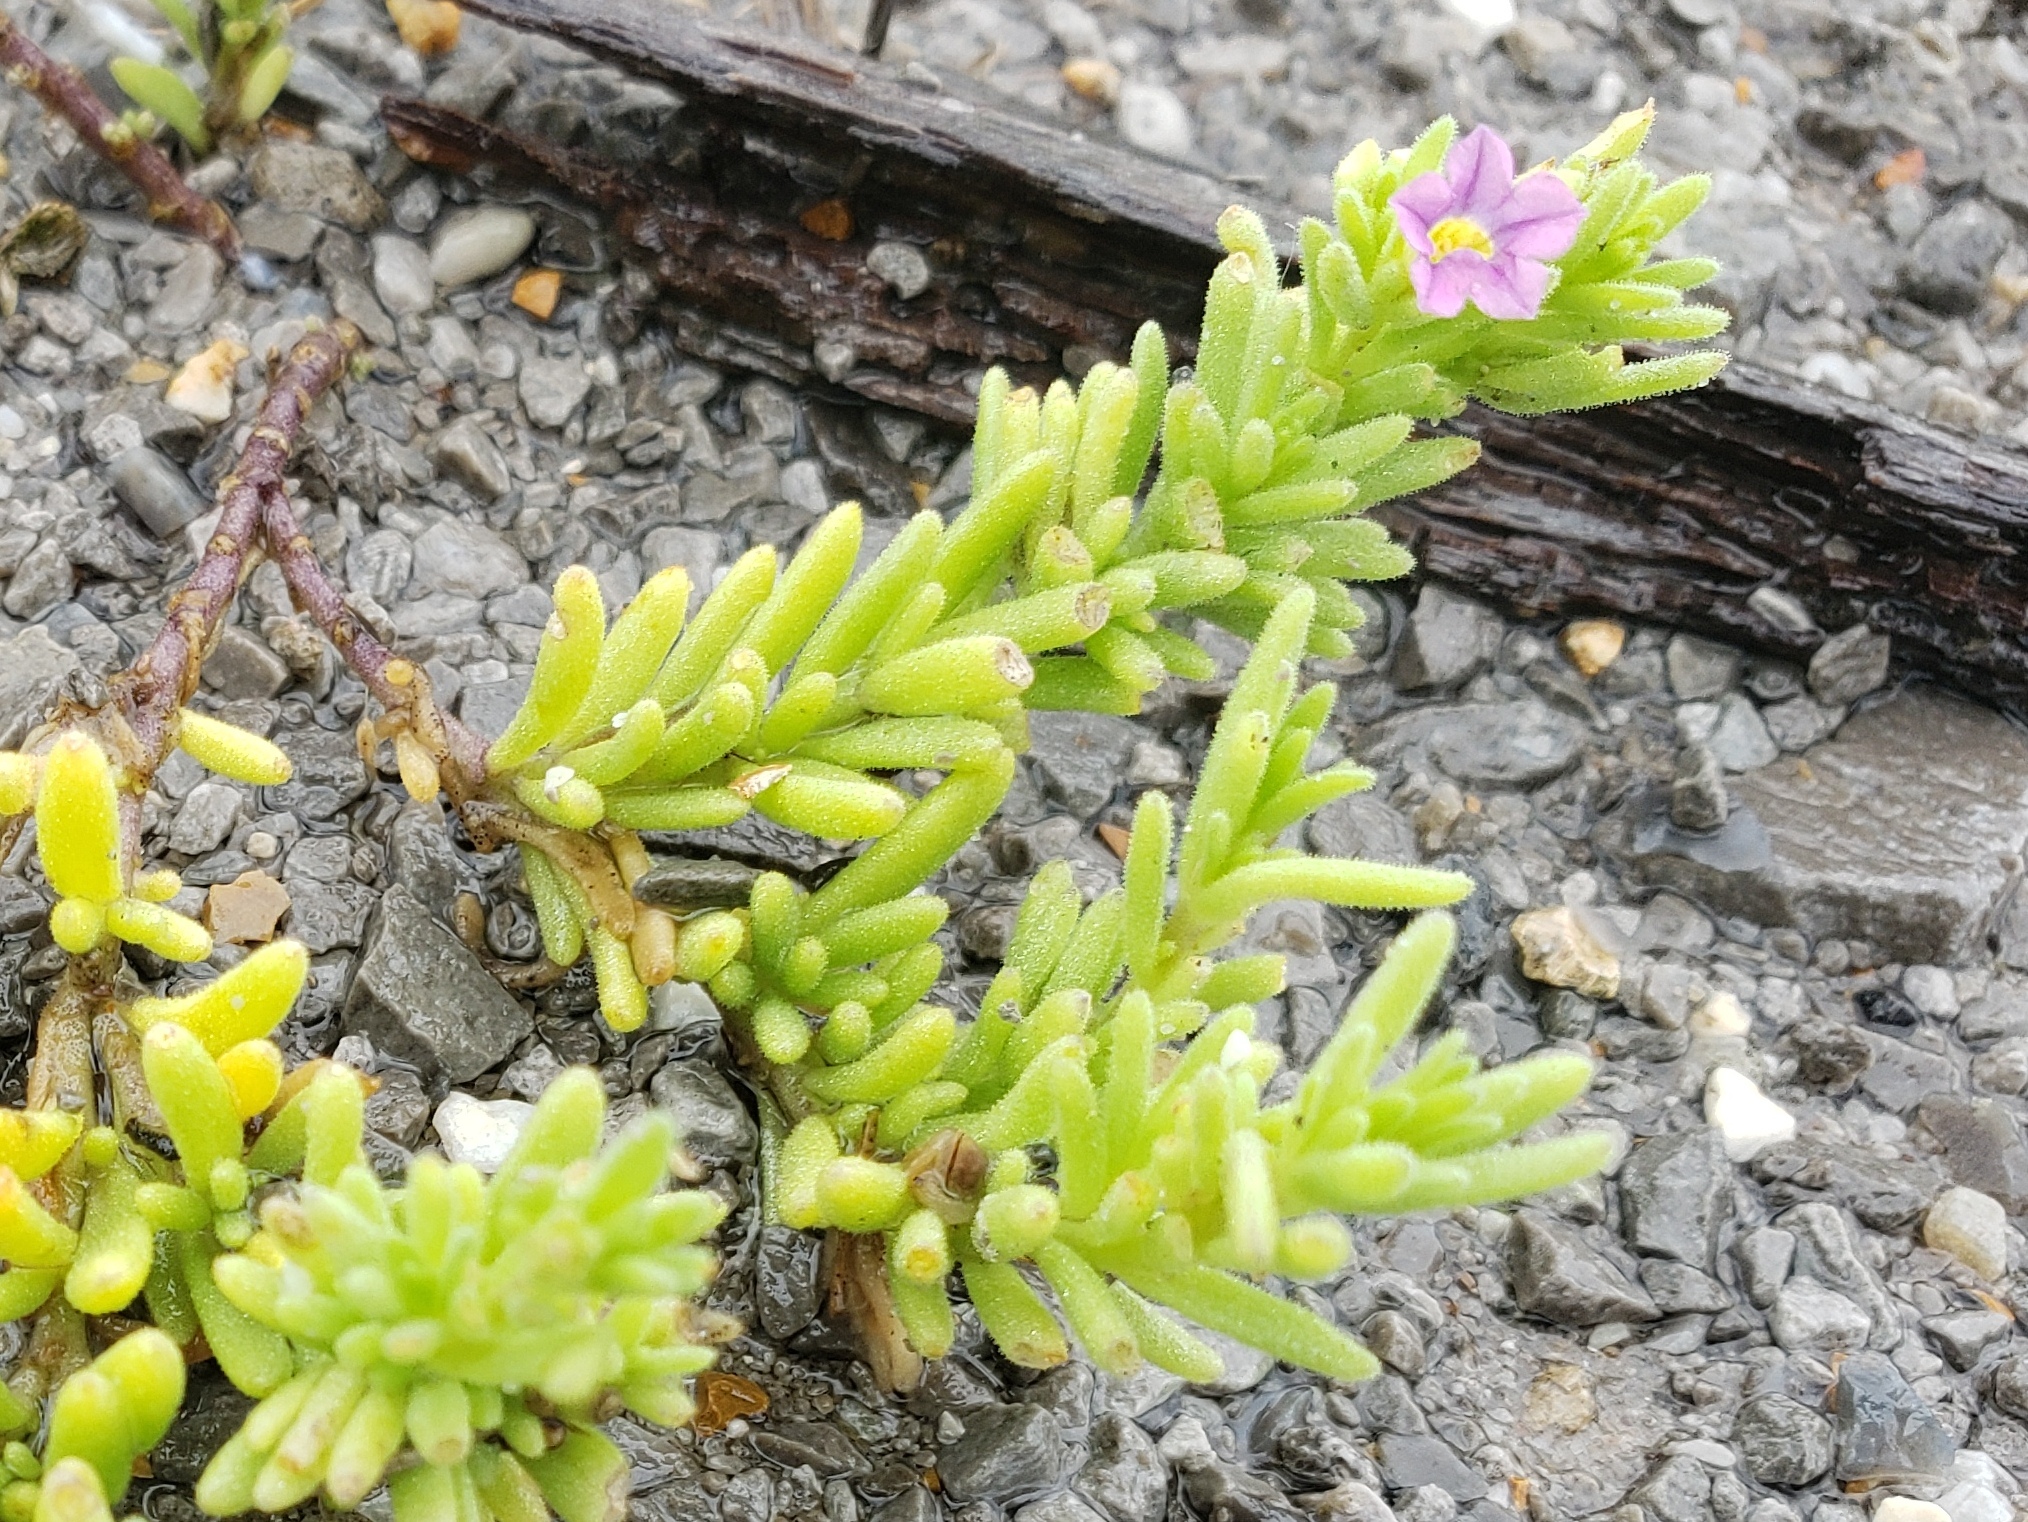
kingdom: Plantae
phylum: Tracheophyta
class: Magnoliopsida
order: Solanales
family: Solanaceae
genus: Calibrachoa
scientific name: Calibrachoa parviflora
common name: Seaside petunia
